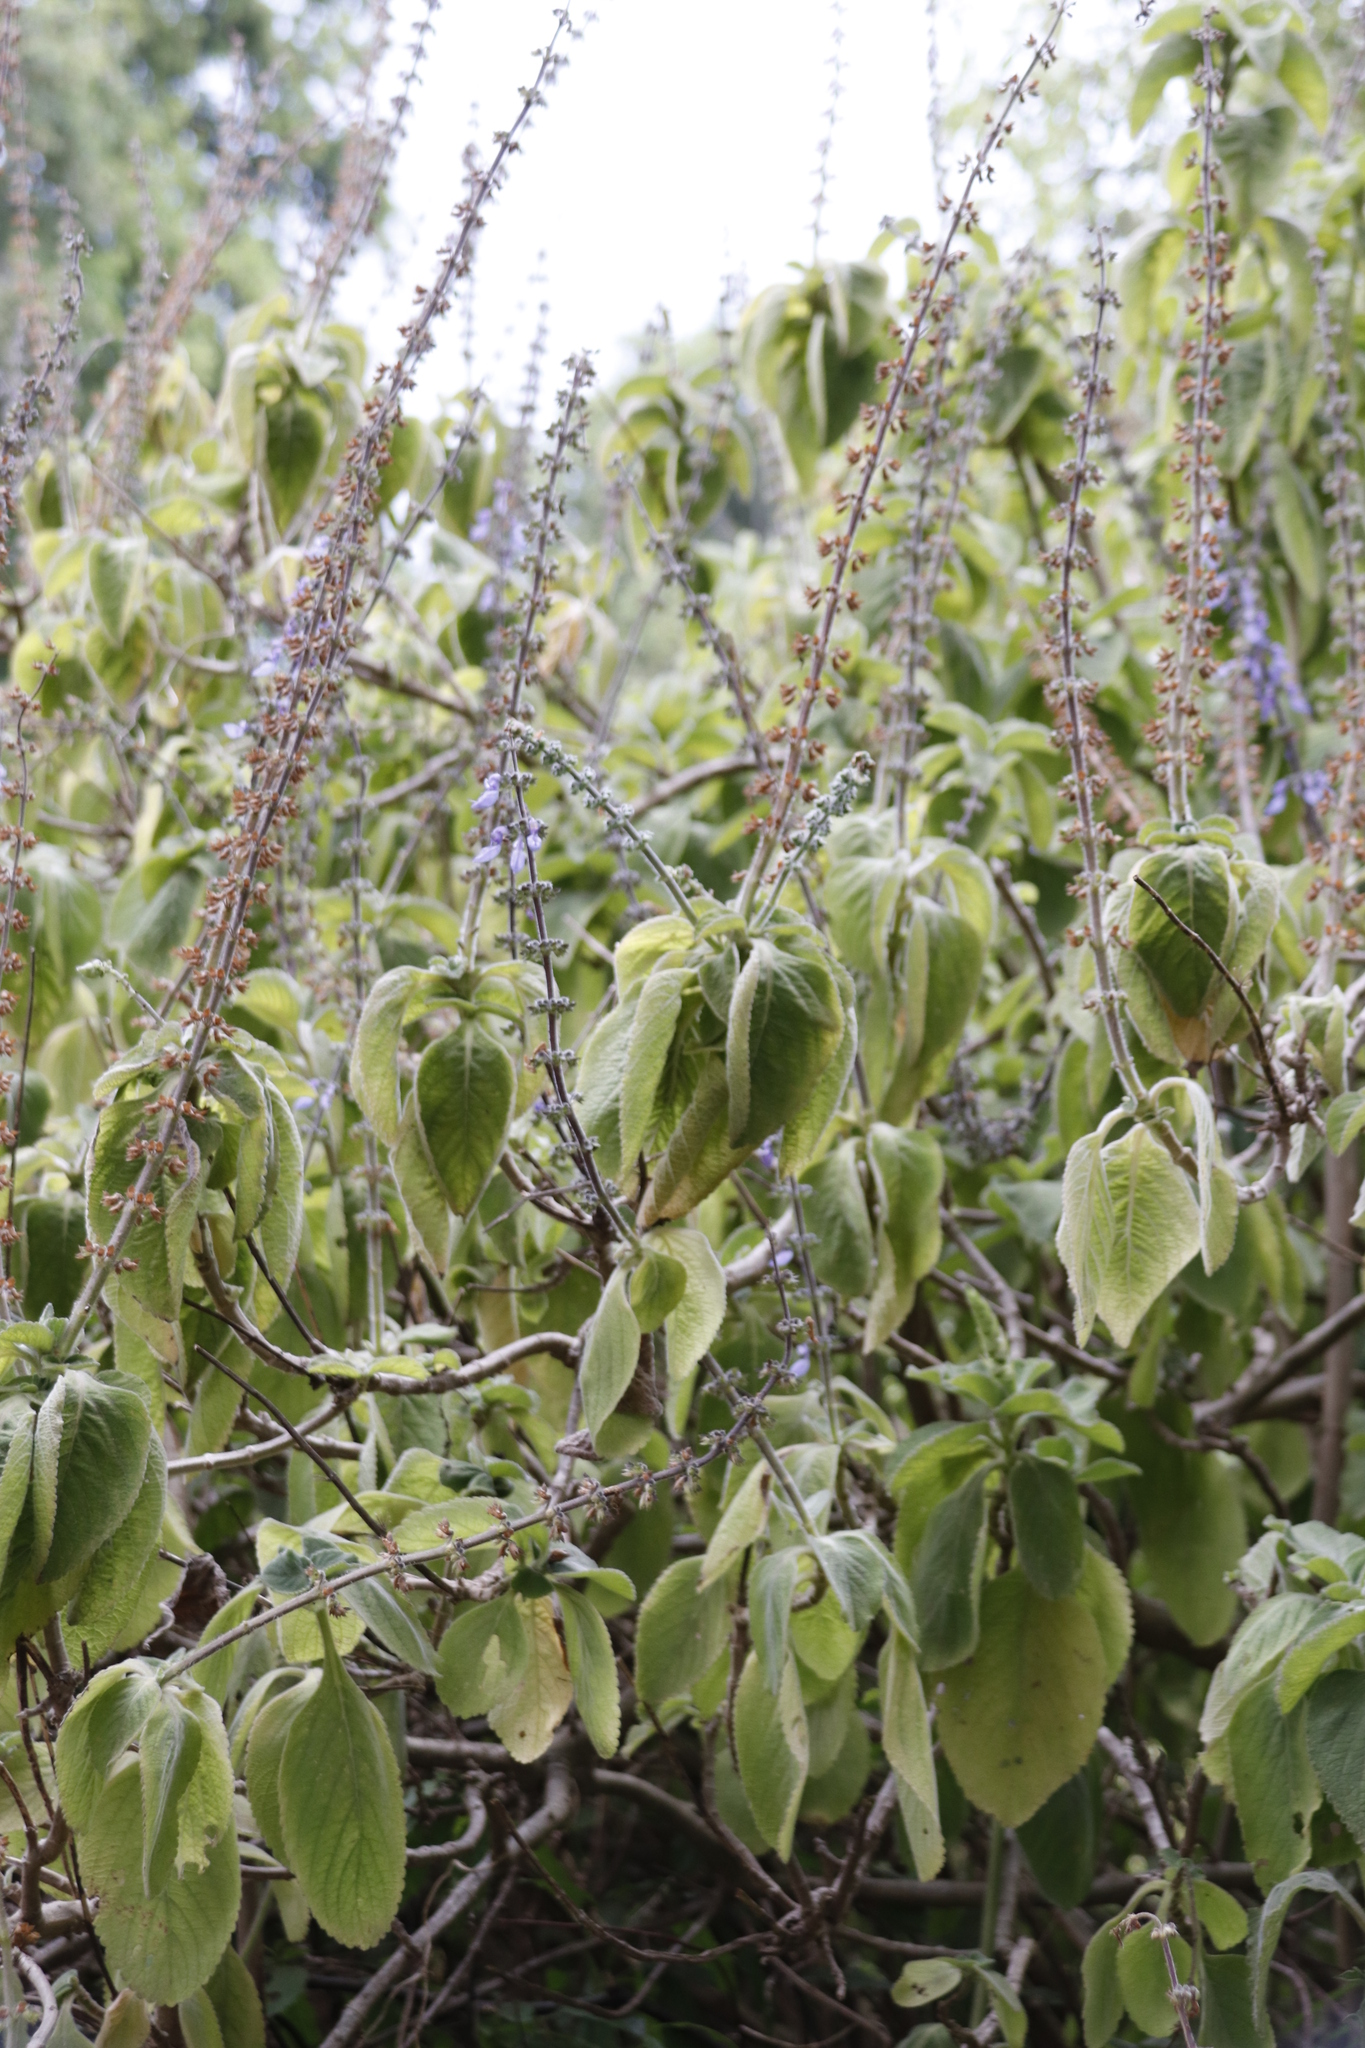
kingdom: Plantae
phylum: Tracheophyta
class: Magnoliopsida
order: Lamiales
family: Lamiaceae
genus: Coleus
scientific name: Coleus barbatus
